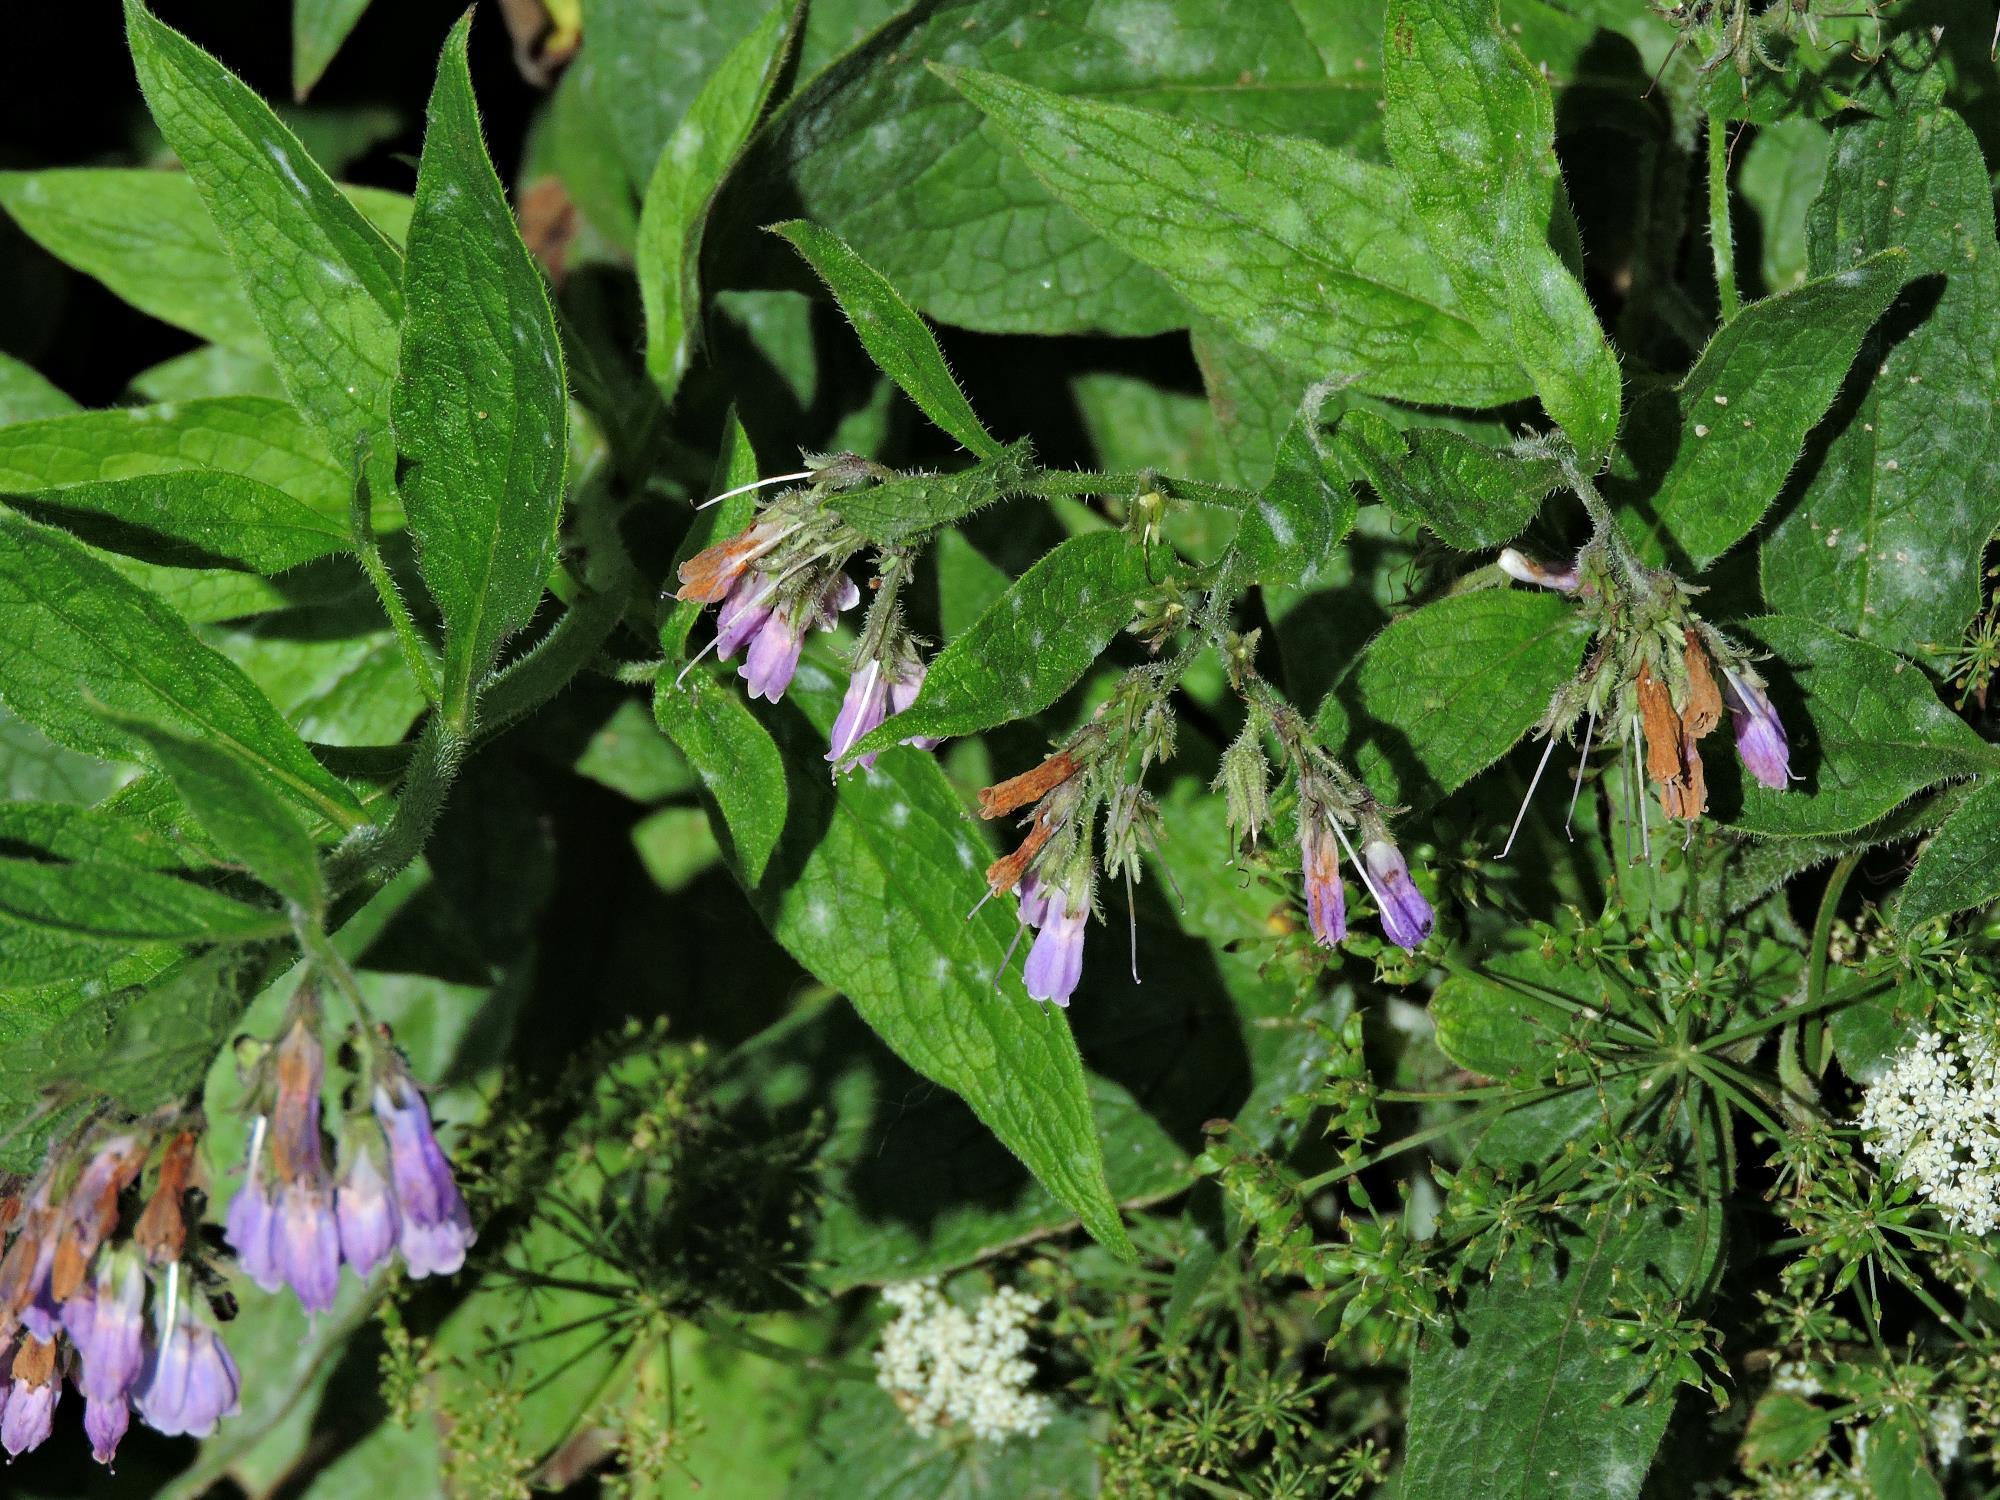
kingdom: Plantae
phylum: Tracheophyta
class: Magnoliopsida
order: Boraginales
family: Boraginaceae
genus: Symphytum
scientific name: Symphytum uplandicum
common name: Russian comfrey
